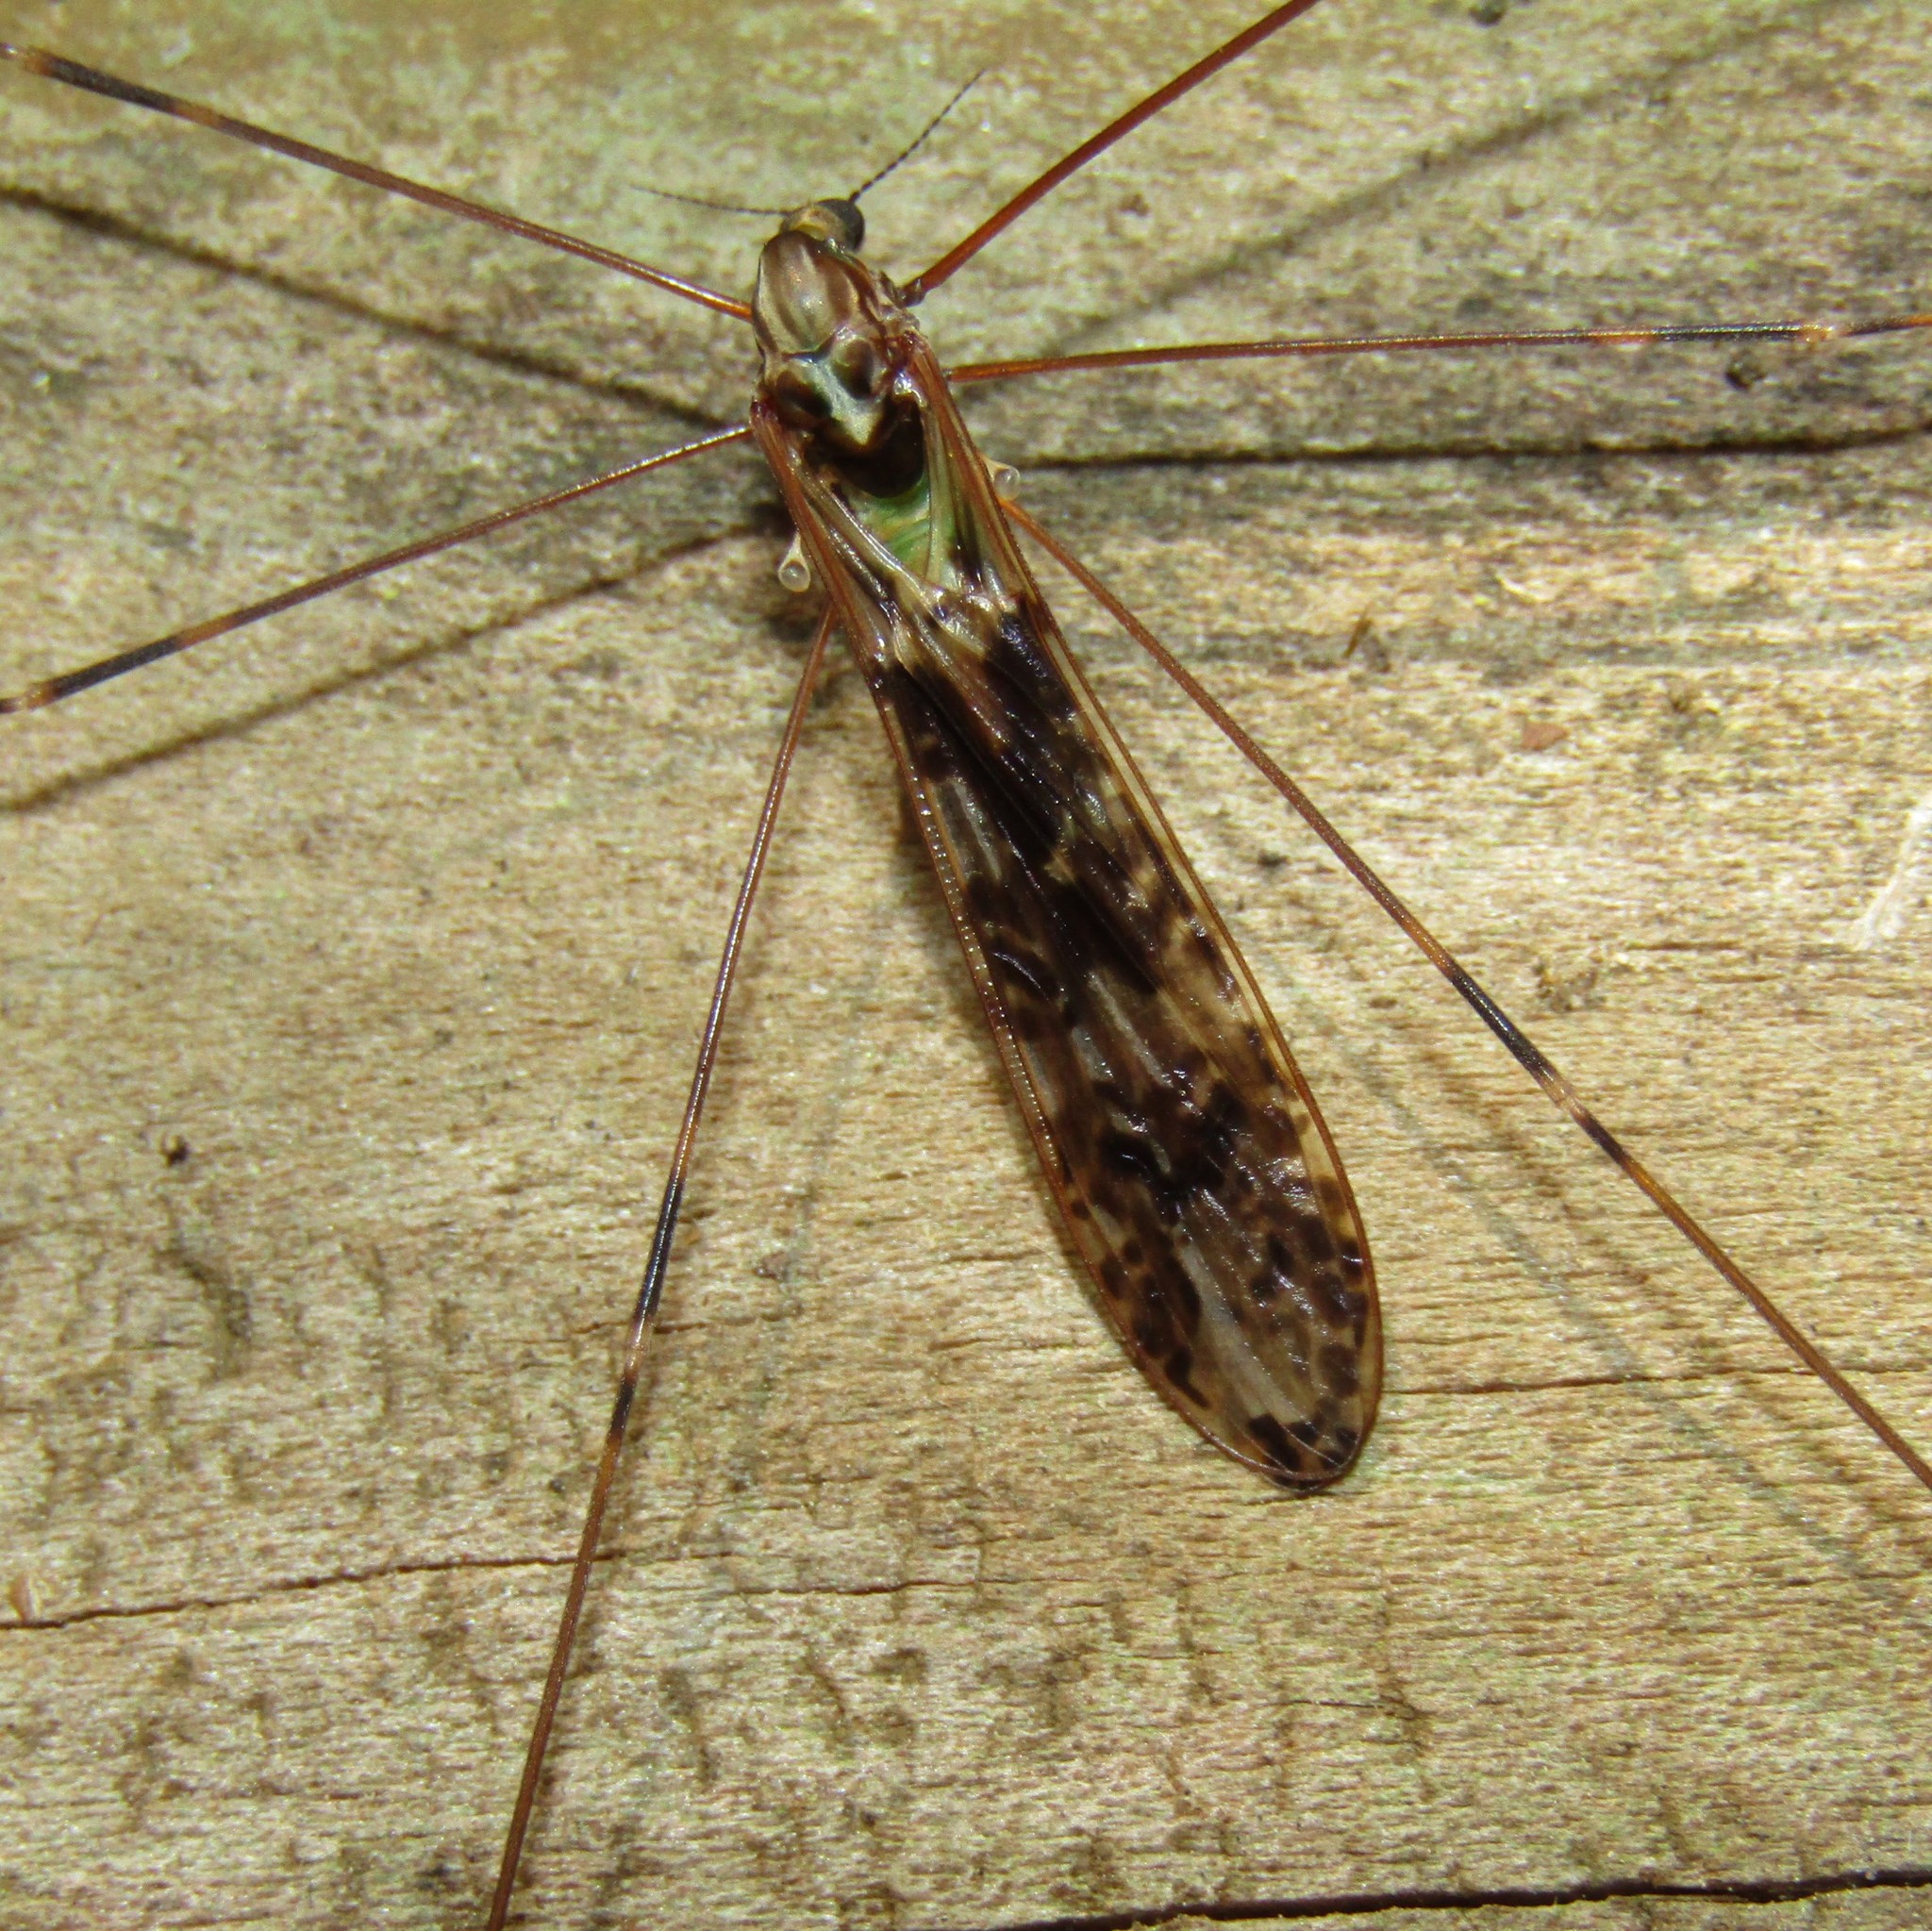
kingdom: Animalia
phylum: Arthropoda
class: Insecta
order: Diptera
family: Limoniidae
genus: Discobola
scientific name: Discobola dohrni
